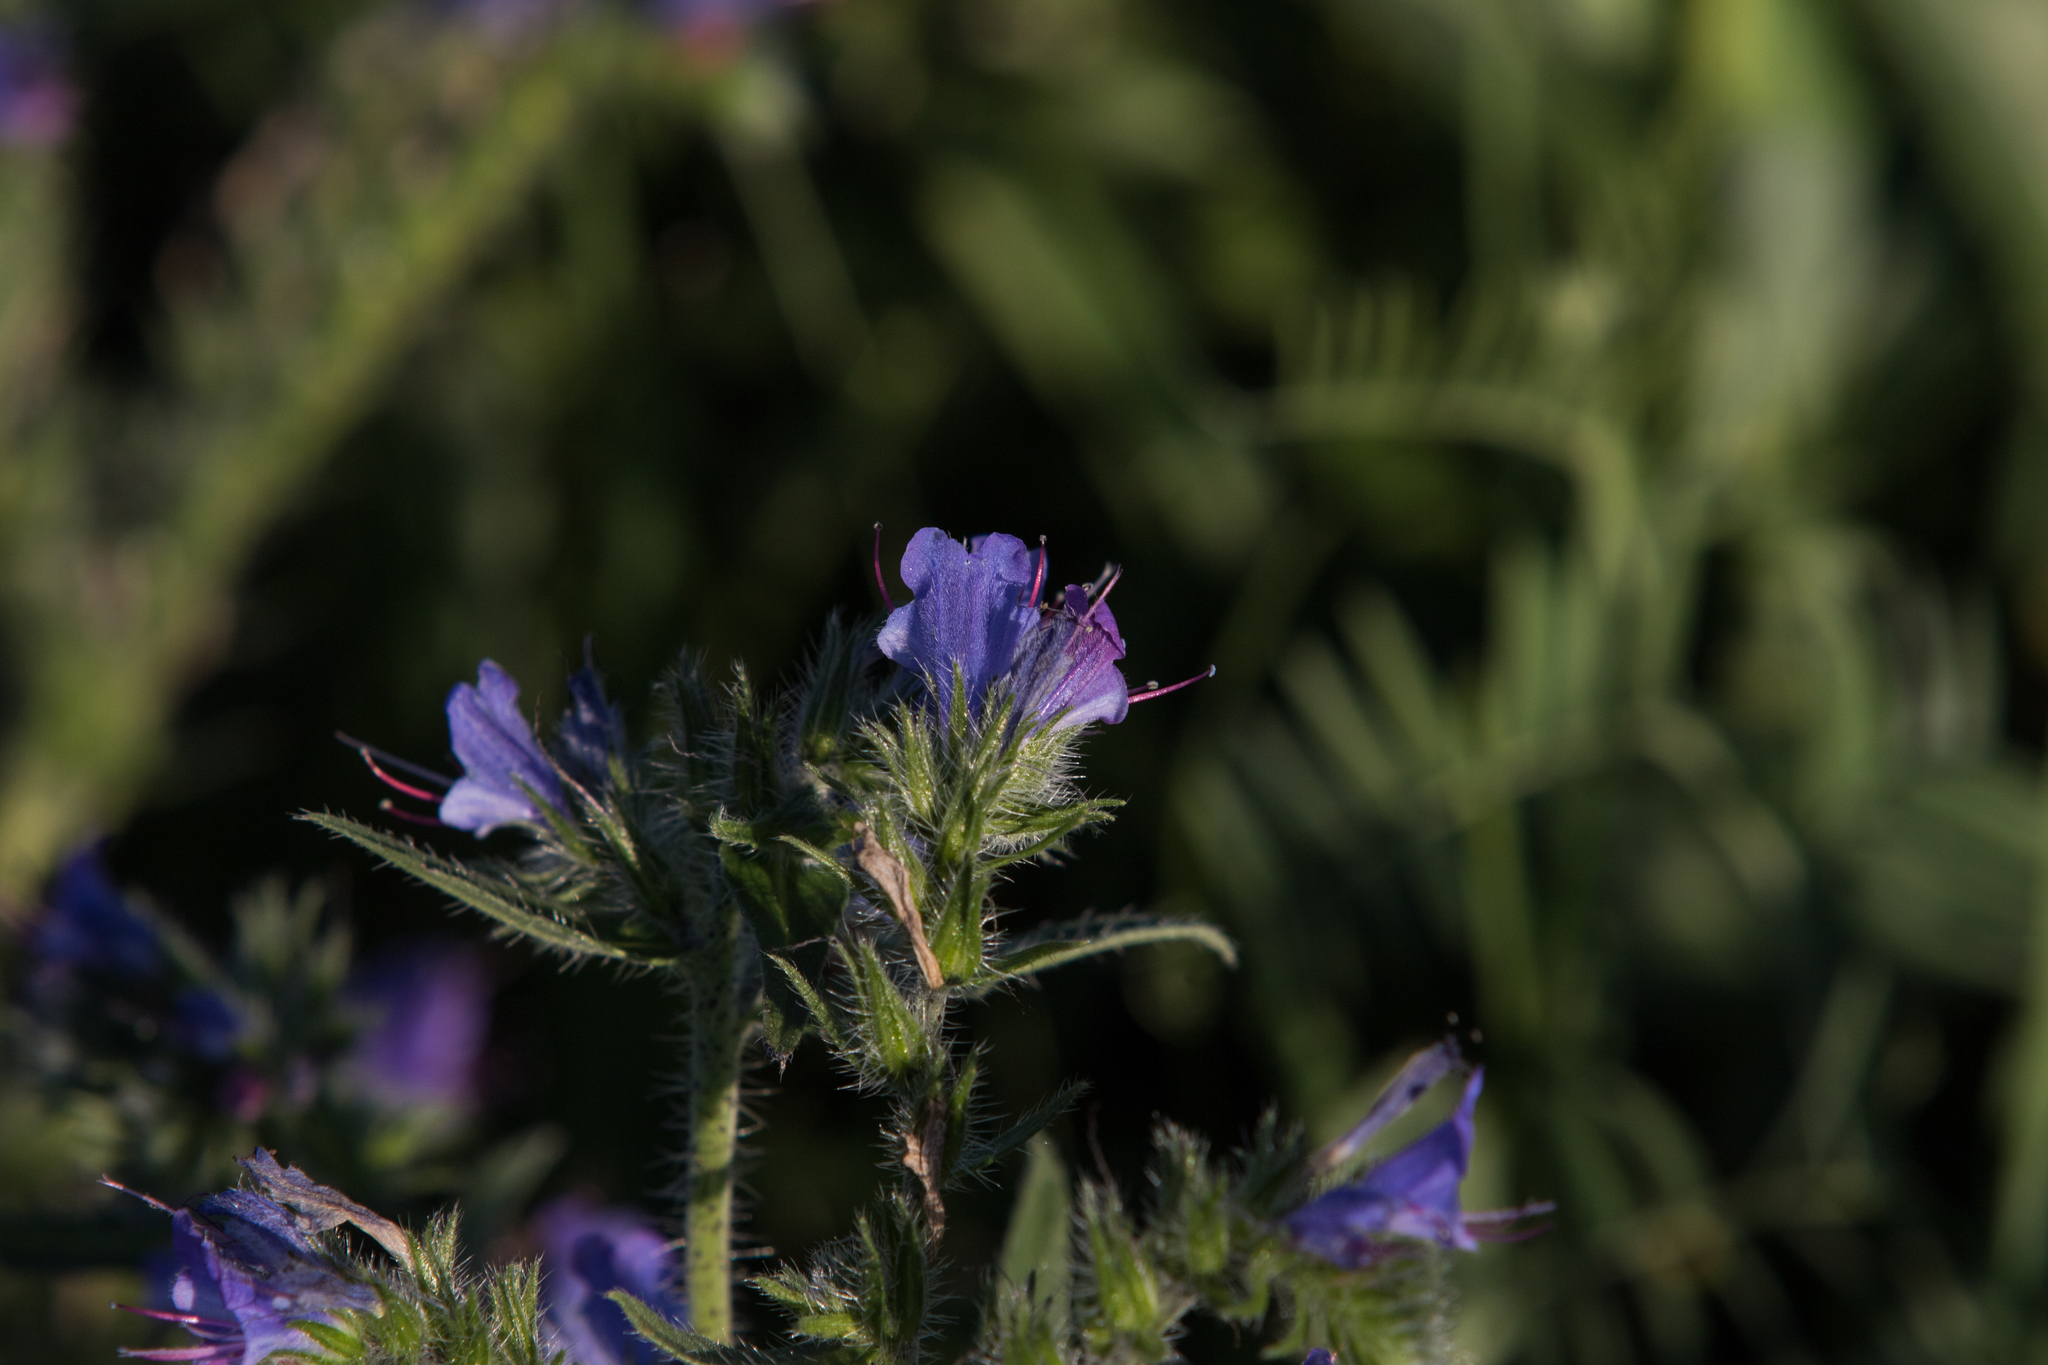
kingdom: Plantae
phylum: Tracheophyta
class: Magnoliopsida
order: Boraginales
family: Boraginaceae
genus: Echium
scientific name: Echium vulgare
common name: Common viper's bugloss
